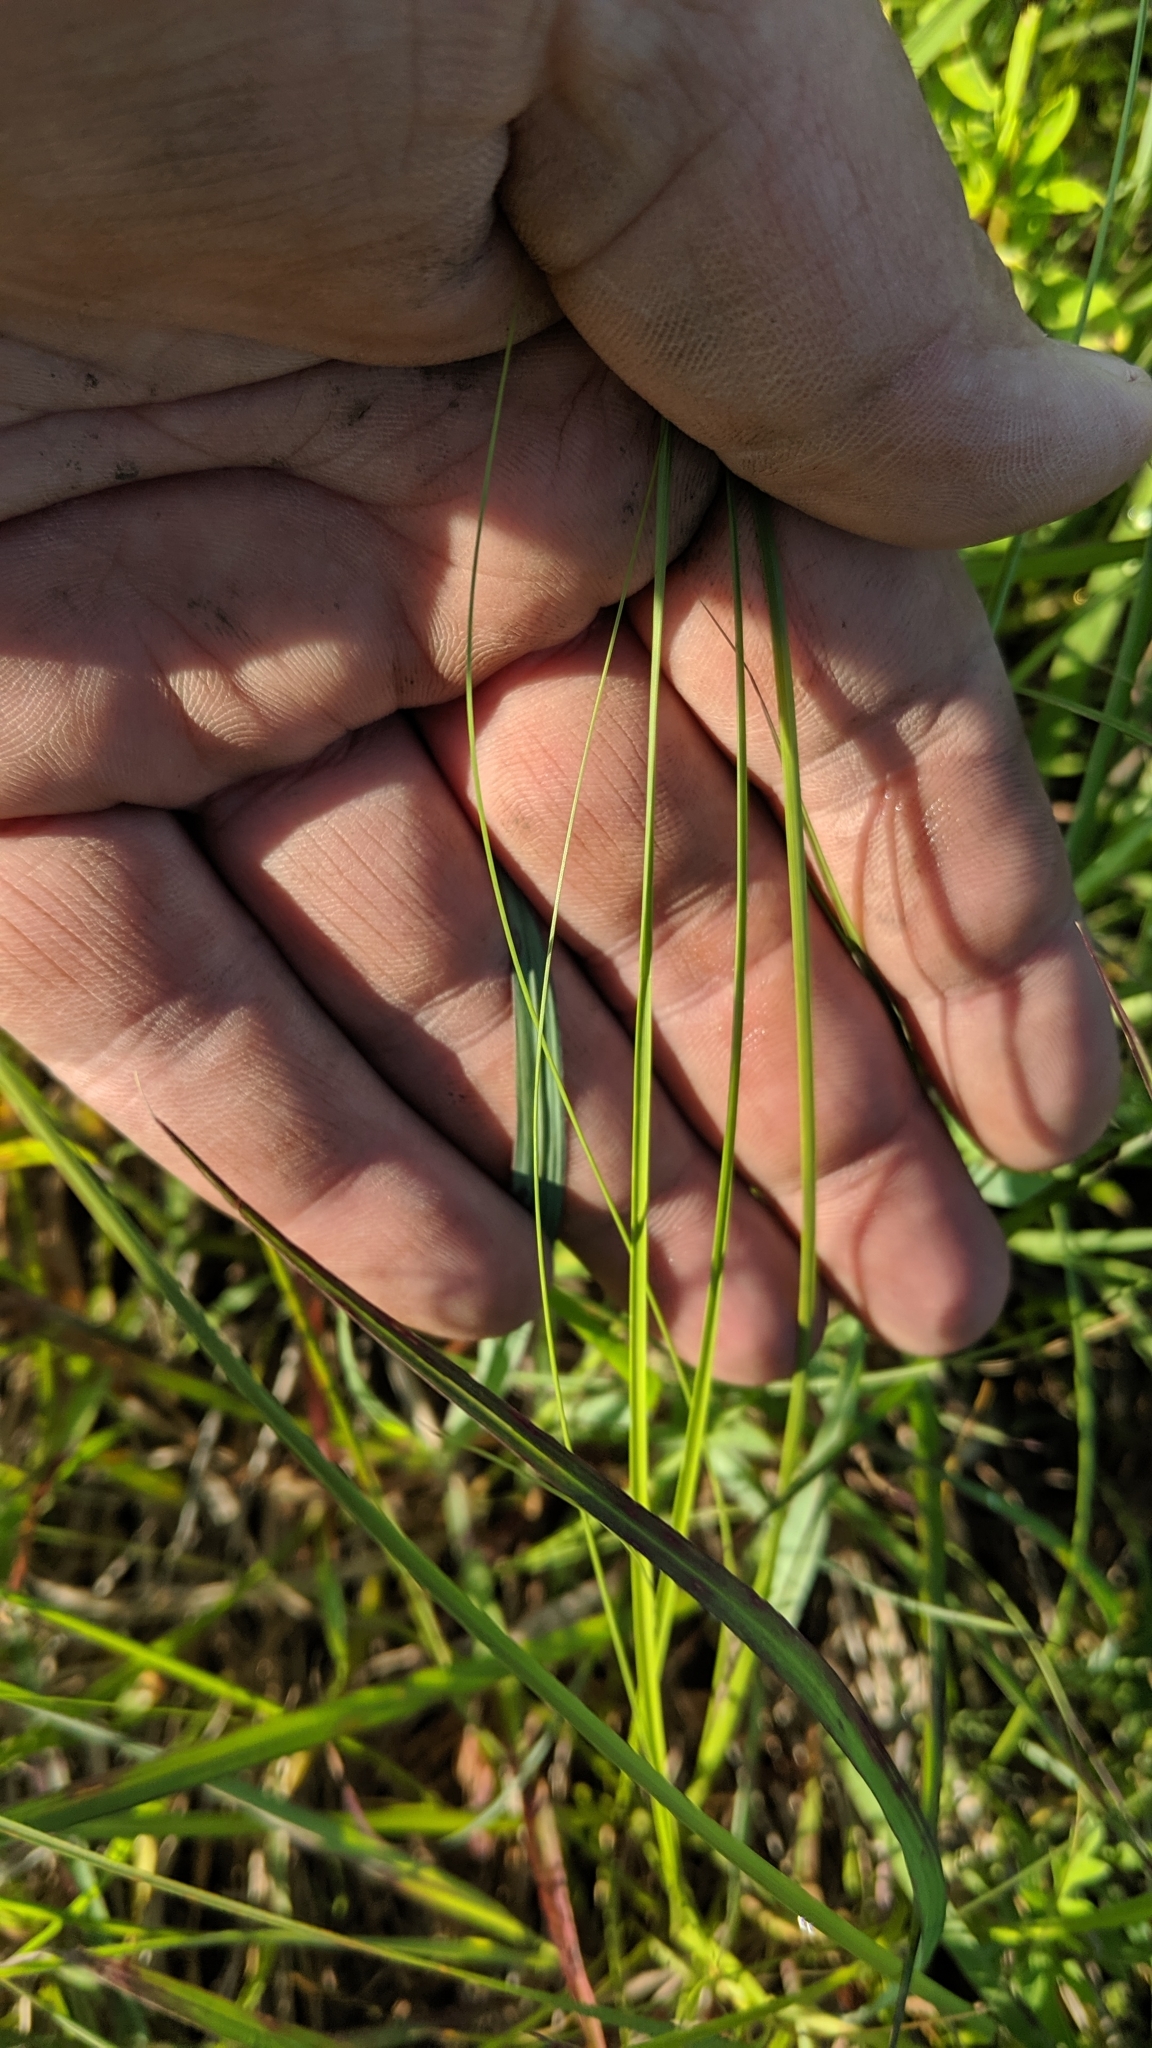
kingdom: Plantae
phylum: Tracheophyta
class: Liliopsida
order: Poales
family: Poaceae
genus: Sporobolus
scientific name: Sporobolus compositus
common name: Rough dropseed
